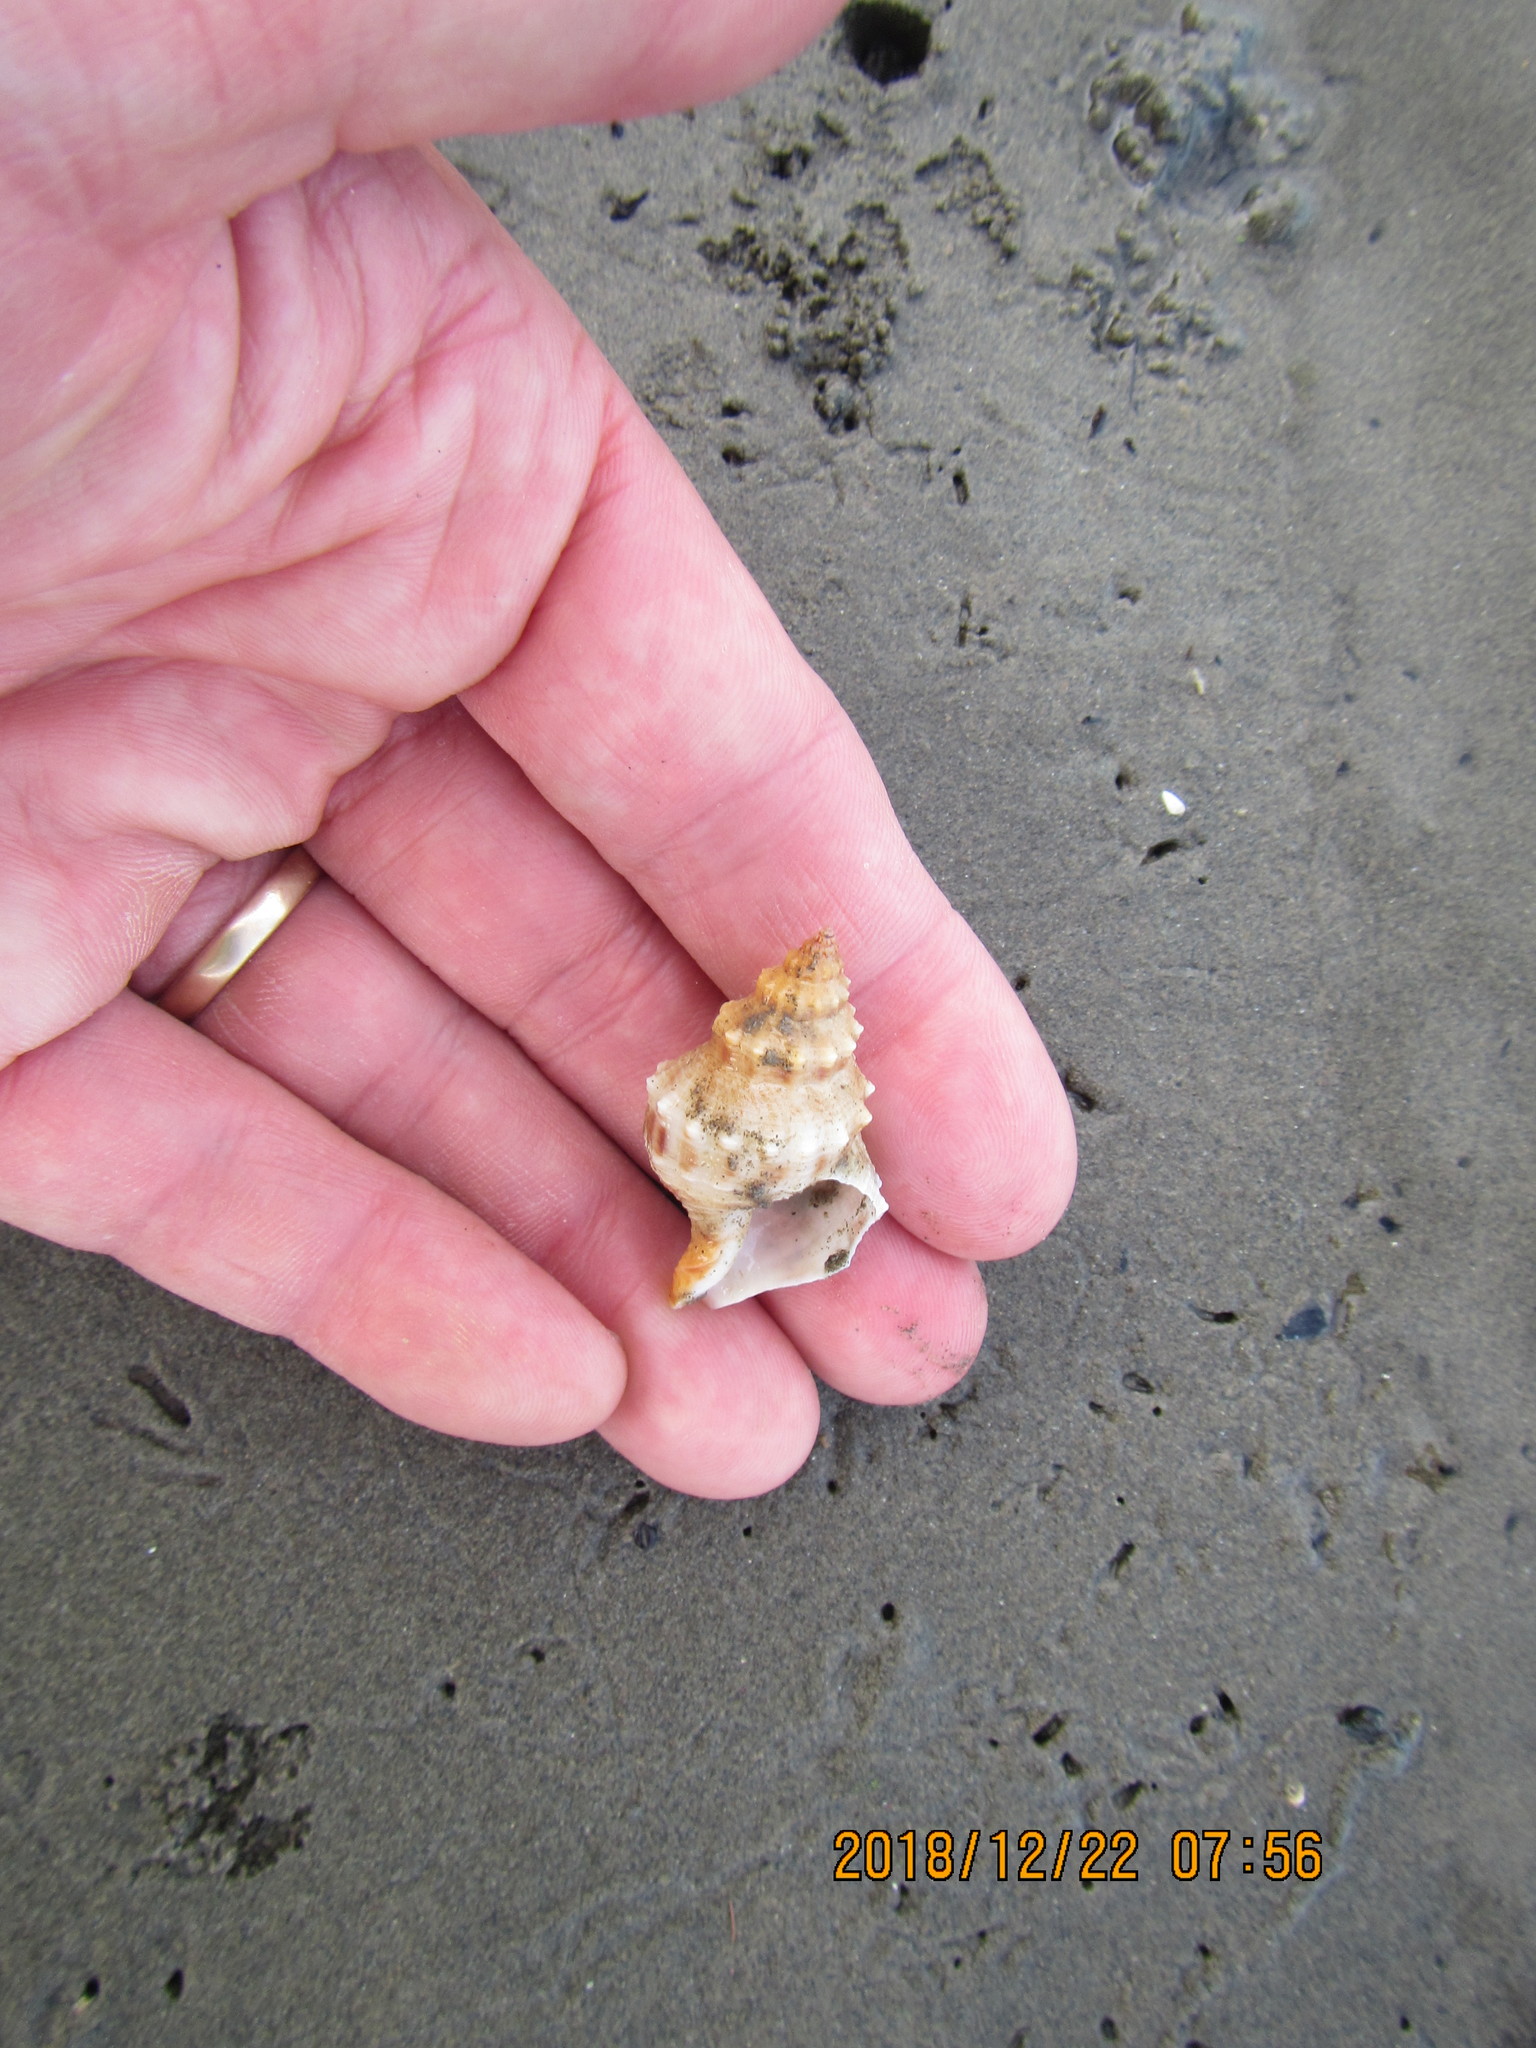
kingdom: Animalia
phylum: Mollusca
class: Gastropoda
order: Neogastropoda
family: Prosiphonidae
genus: Austrofusus
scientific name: Austrofusus glans
